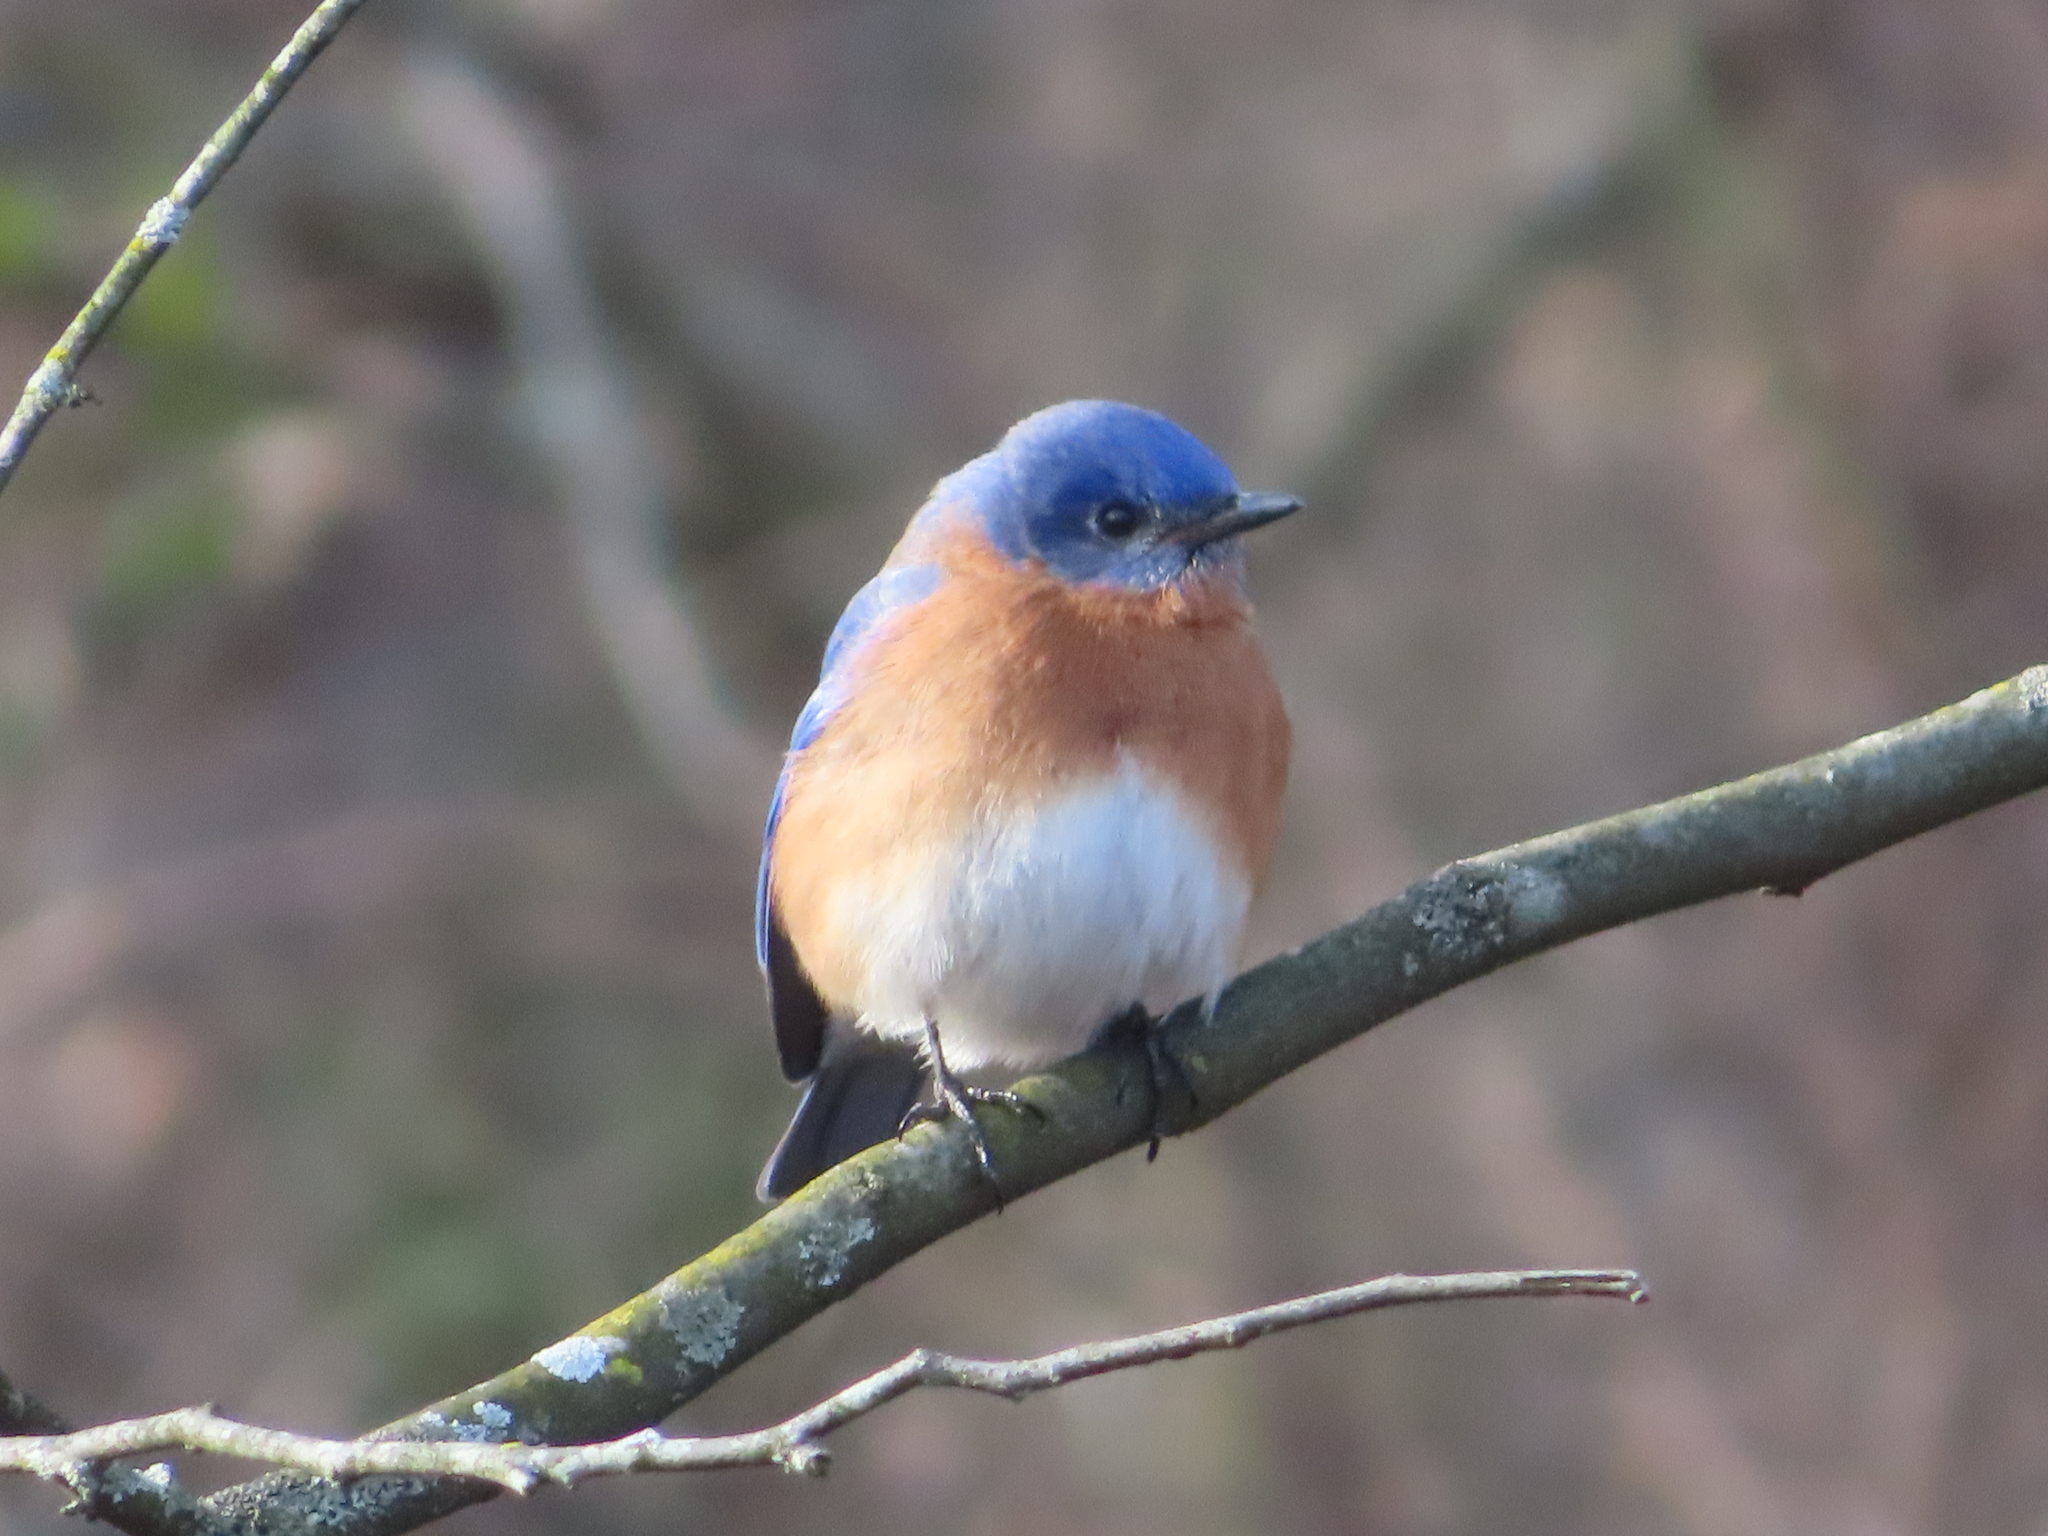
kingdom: Animalia
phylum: Chordata
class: Aves
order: Passeriformes
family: Turdidae
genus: Sialia
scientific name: Sialia sialis
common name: Eastern bluebird
